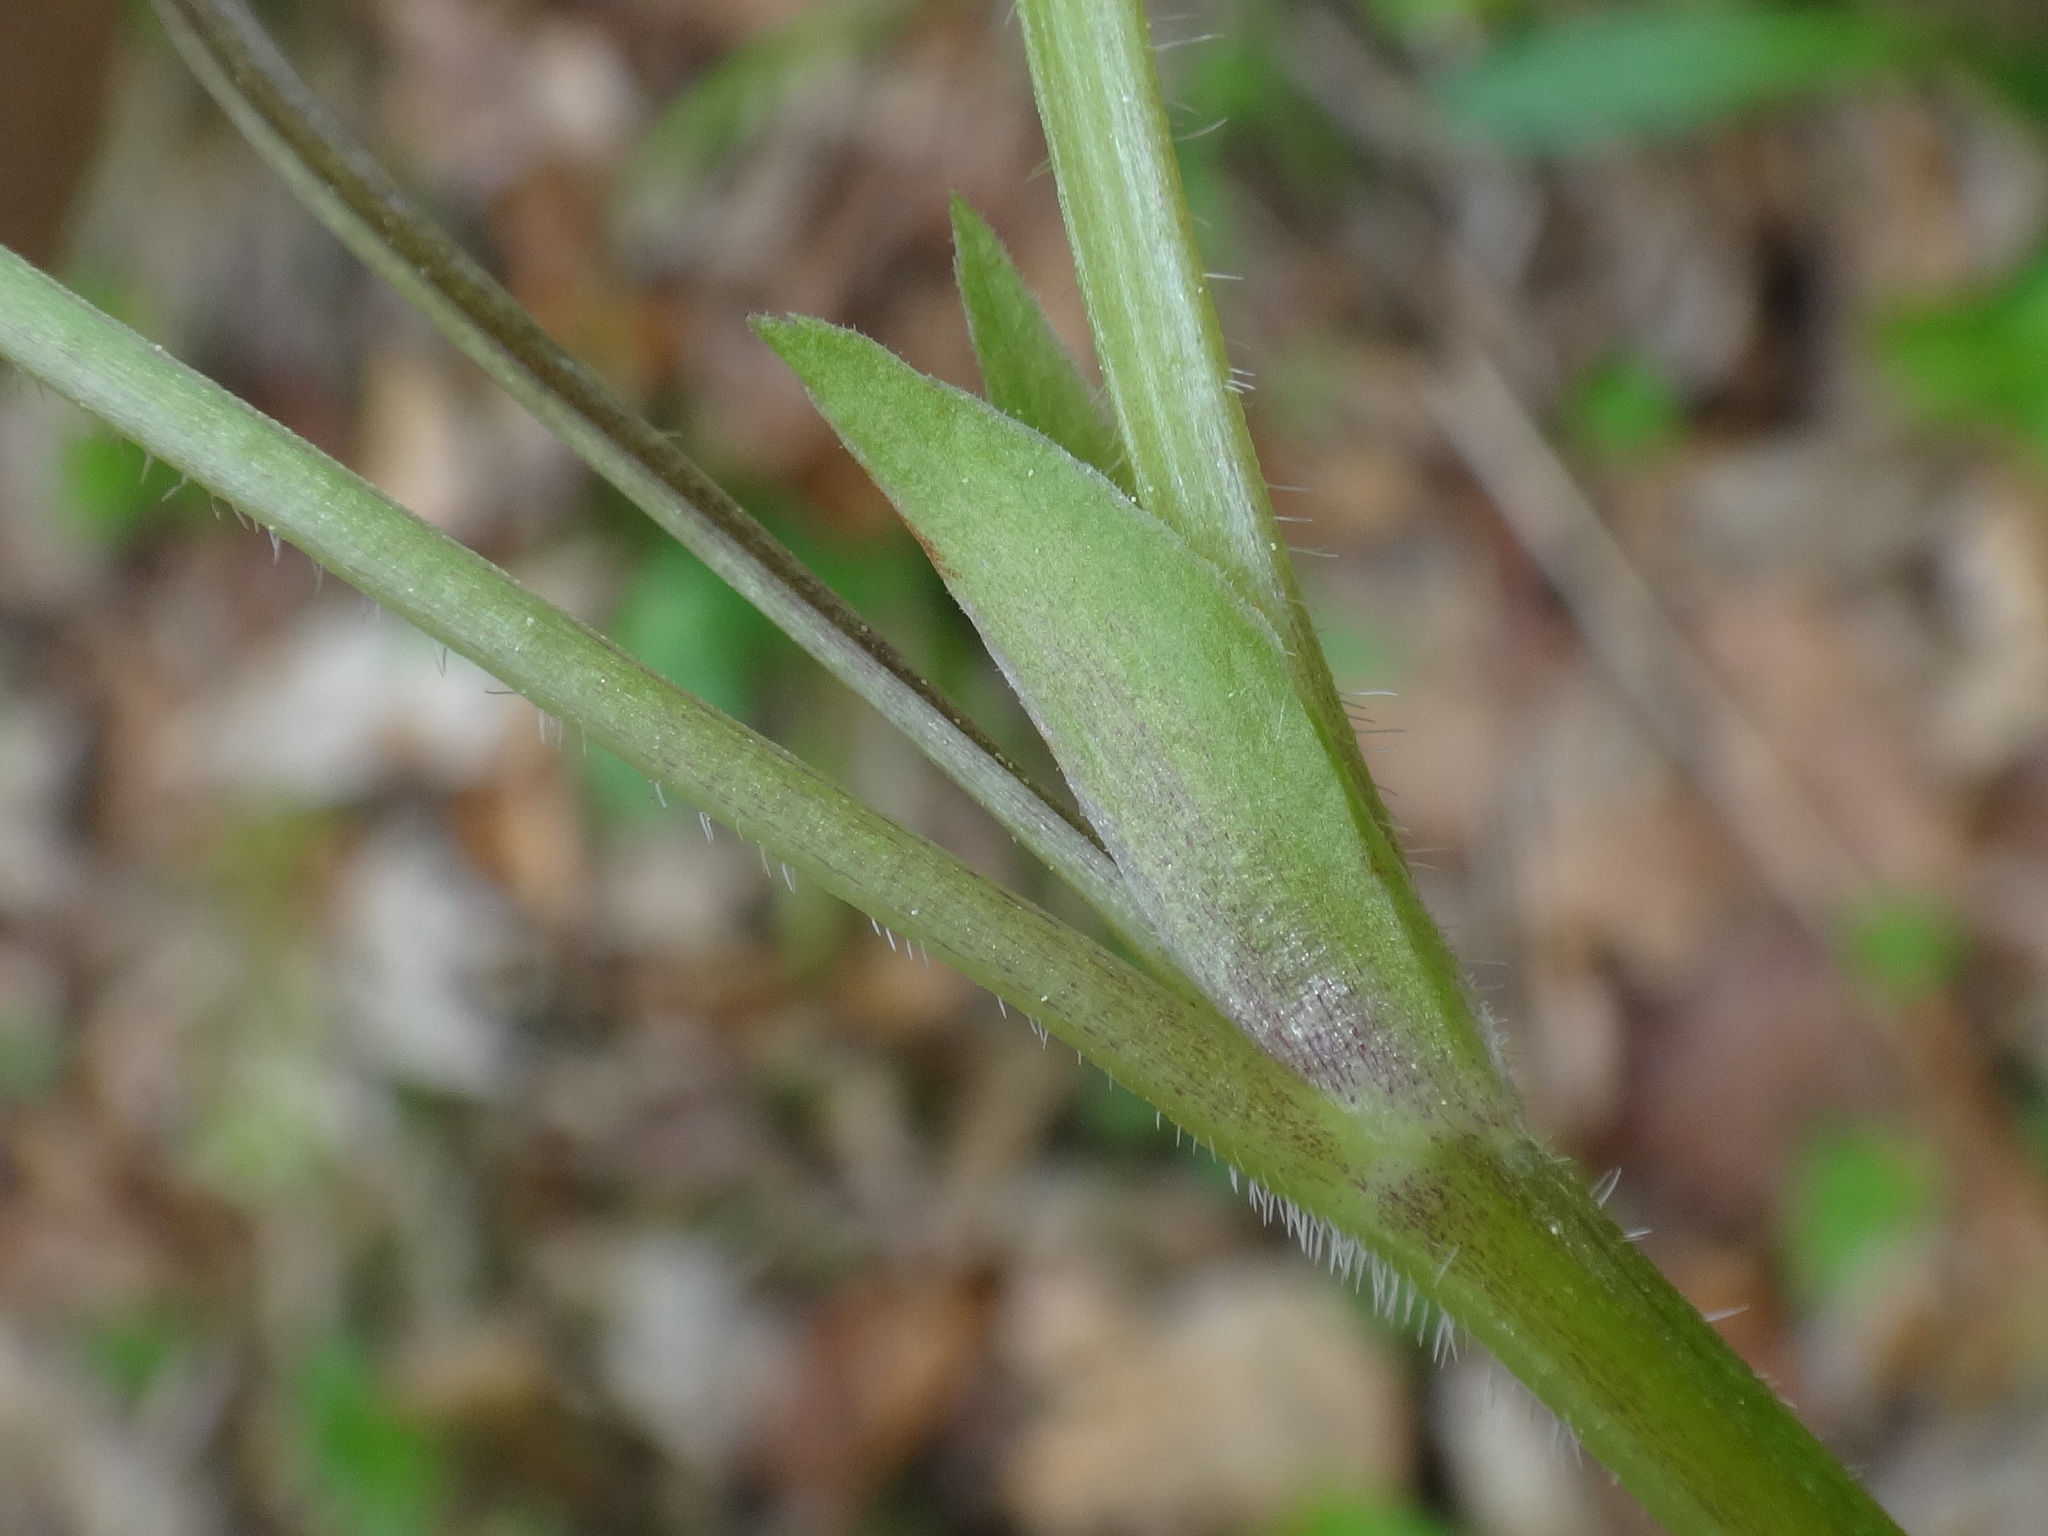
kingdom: Plantae
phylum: Tracheophyta
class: Magnoliopsida
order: Malpighiales
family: Violaceae
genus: Viola
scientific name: Viola mirabilis
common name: Wonder violet
